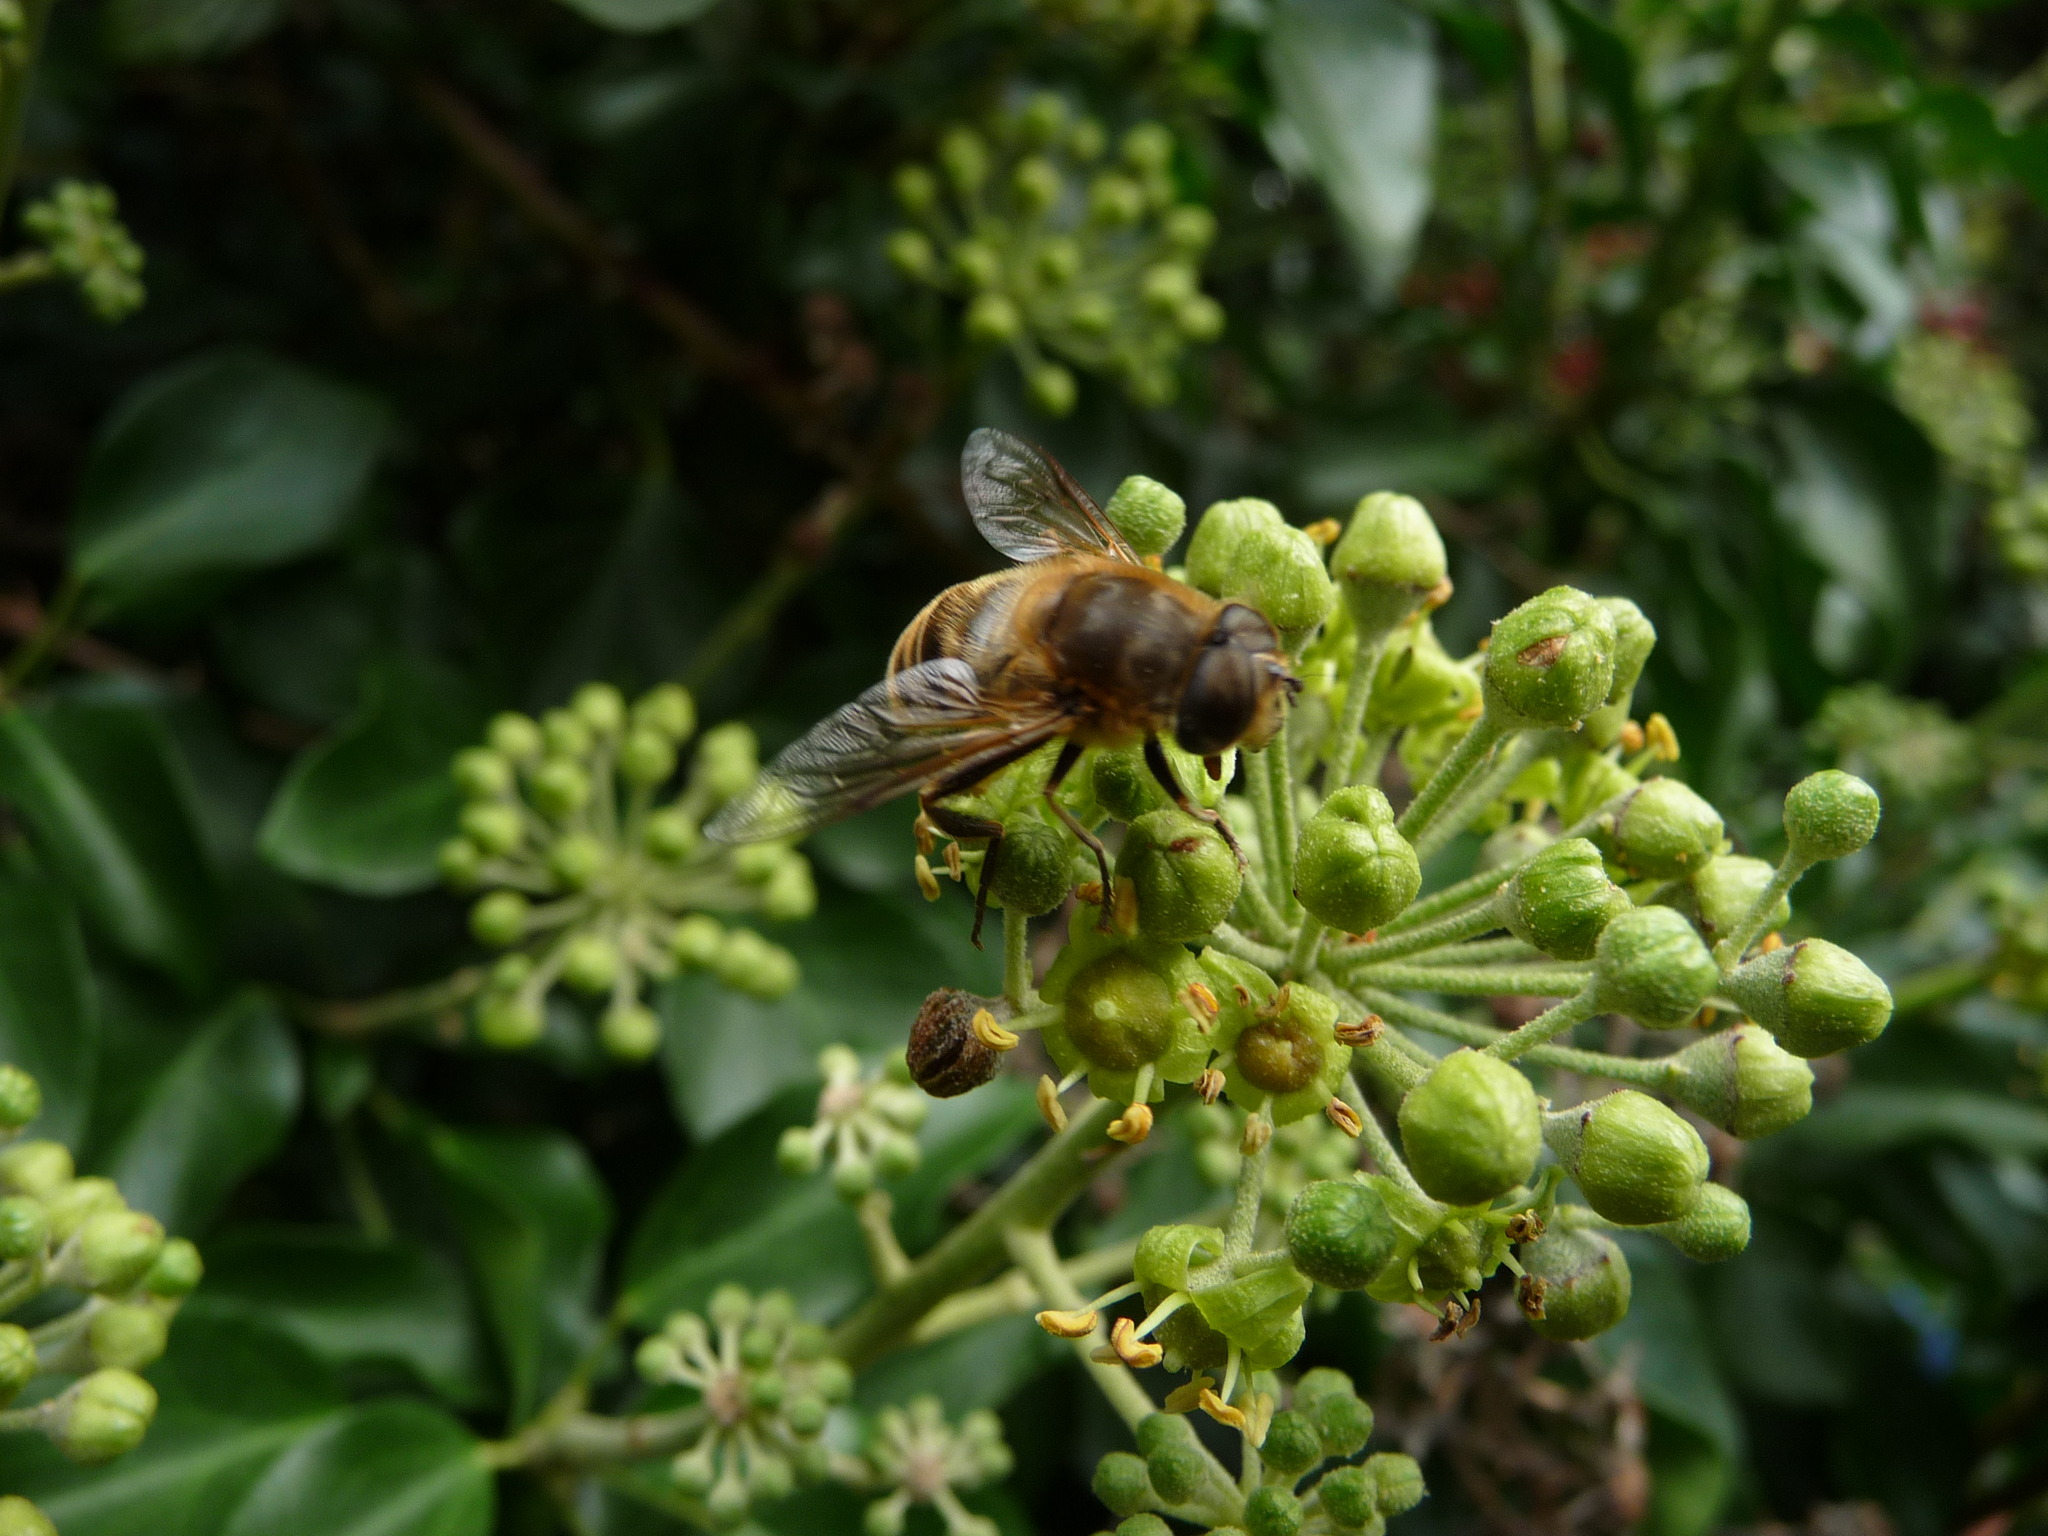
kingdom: Animalia
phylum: Arthropoda
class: Insecta
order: Diptera
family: Syrphidae
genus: Eristalis
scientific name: Eristalis tenax
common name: Drone fly
